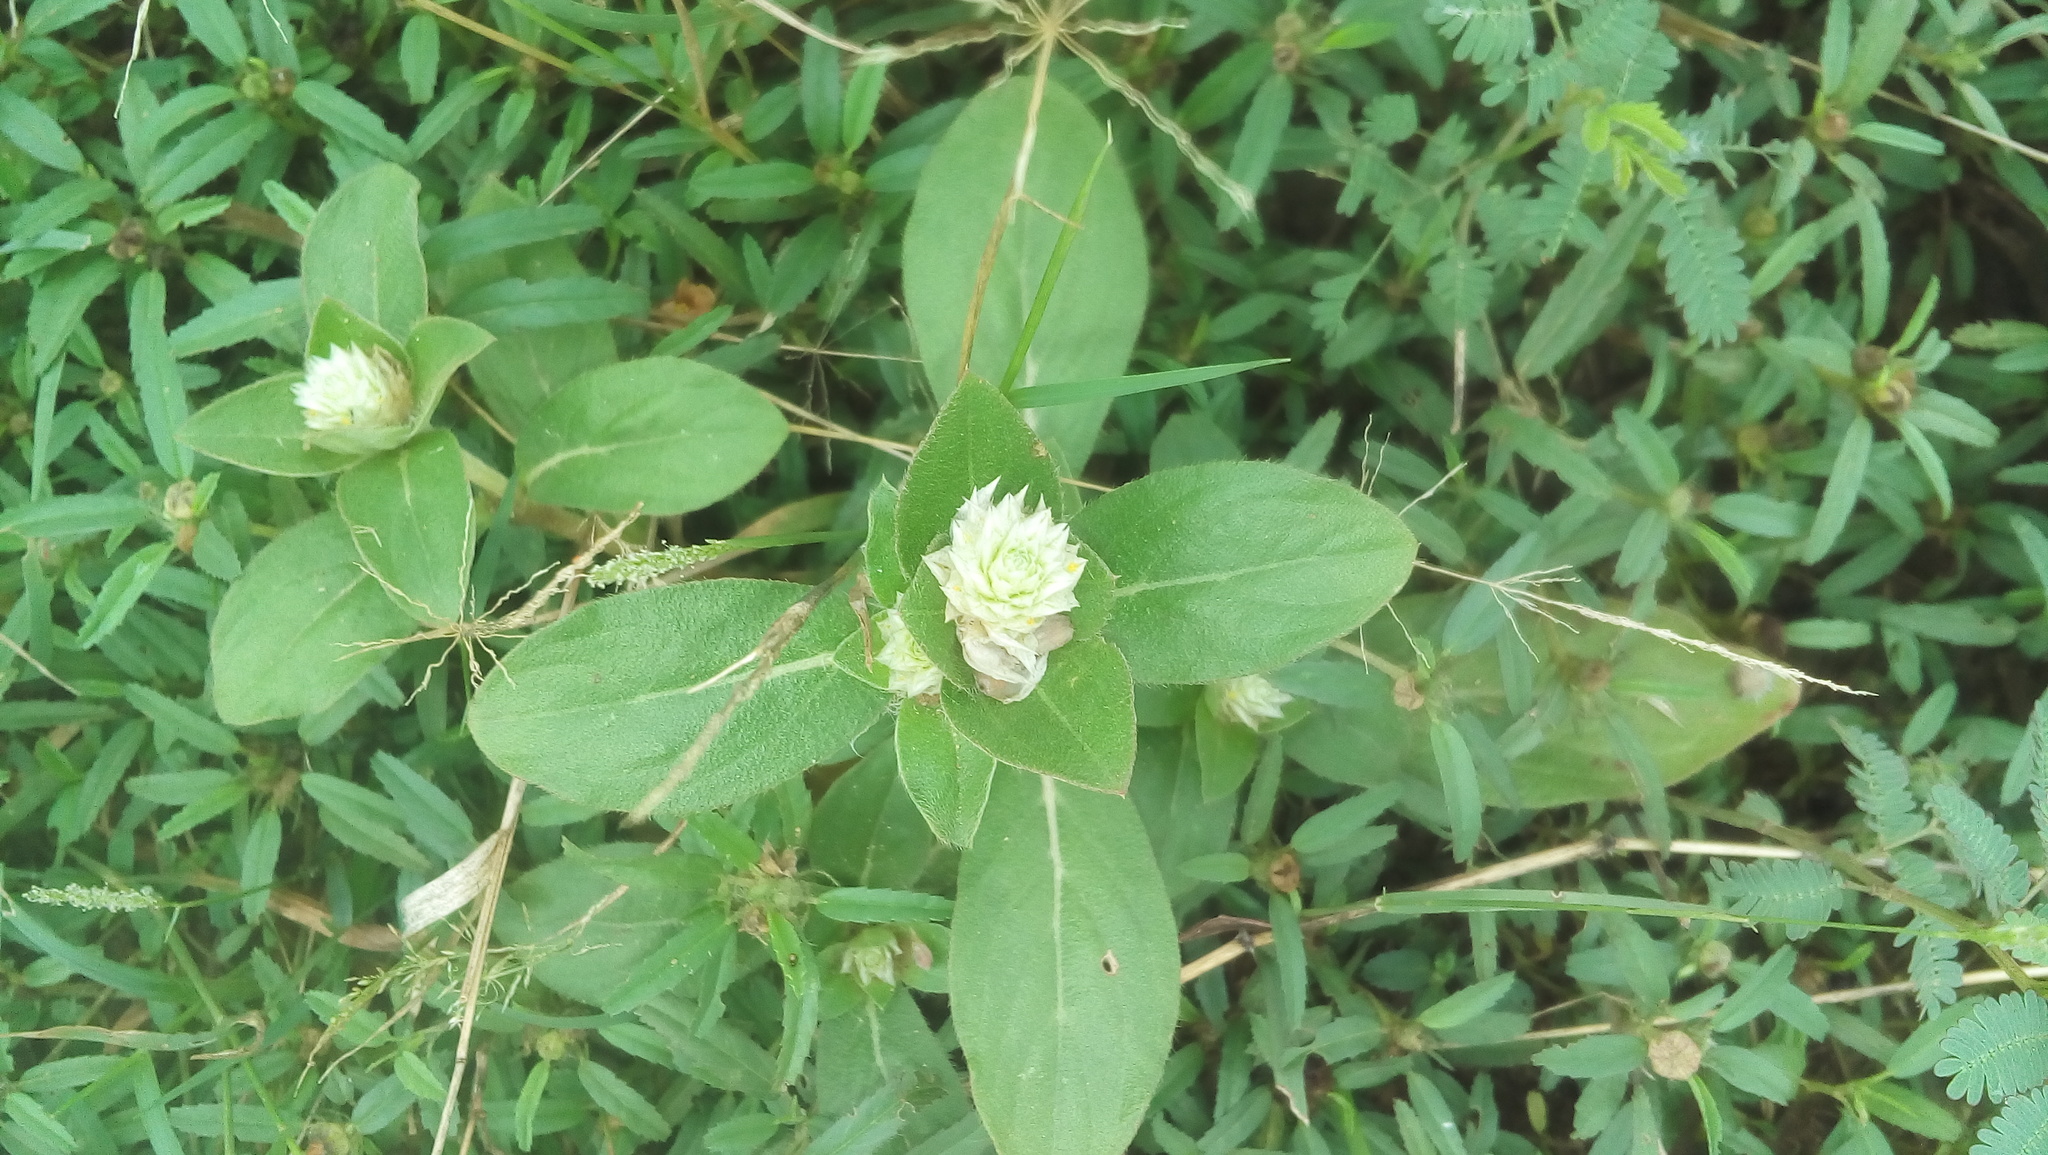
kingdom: Plantae
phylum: Tracheophyta
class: Magnoliopsida
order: Caryophyllales
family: Amaranthaceae
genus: Gomphrena
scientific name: Gomphrena serrata
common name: Arrasa con todo
